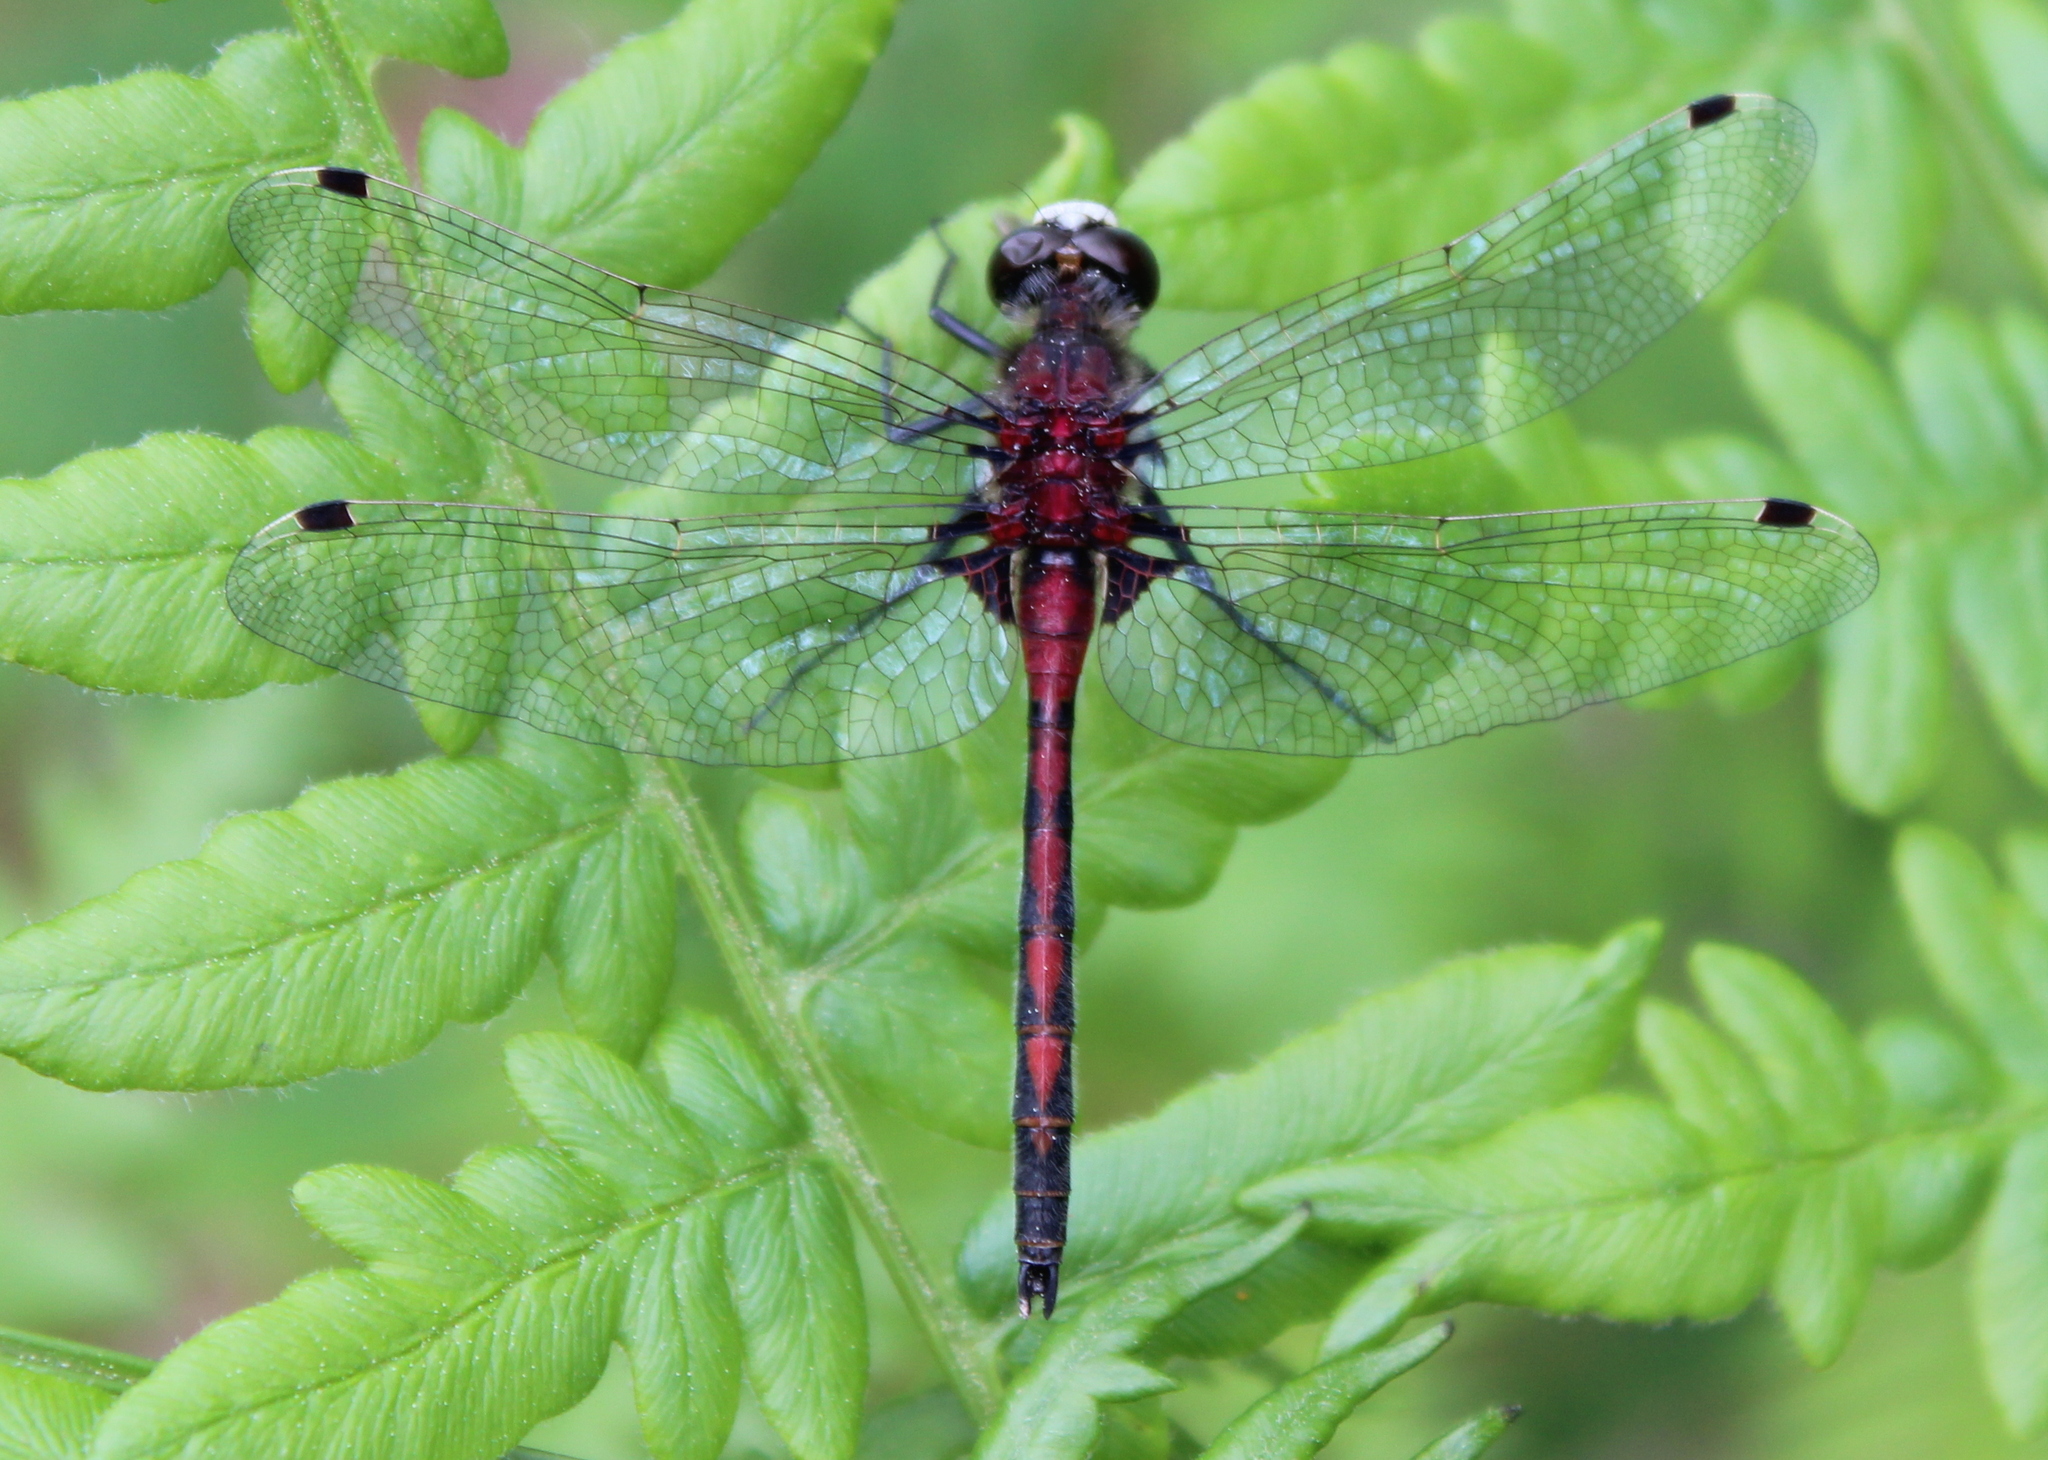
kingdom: Animalia
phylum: Arthropoda
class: Insecta
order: Odonata
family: Libellulidae
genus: Leucorrhinia
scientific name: Leucorrhinia hudsonica
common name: Hudsonian whiteface
